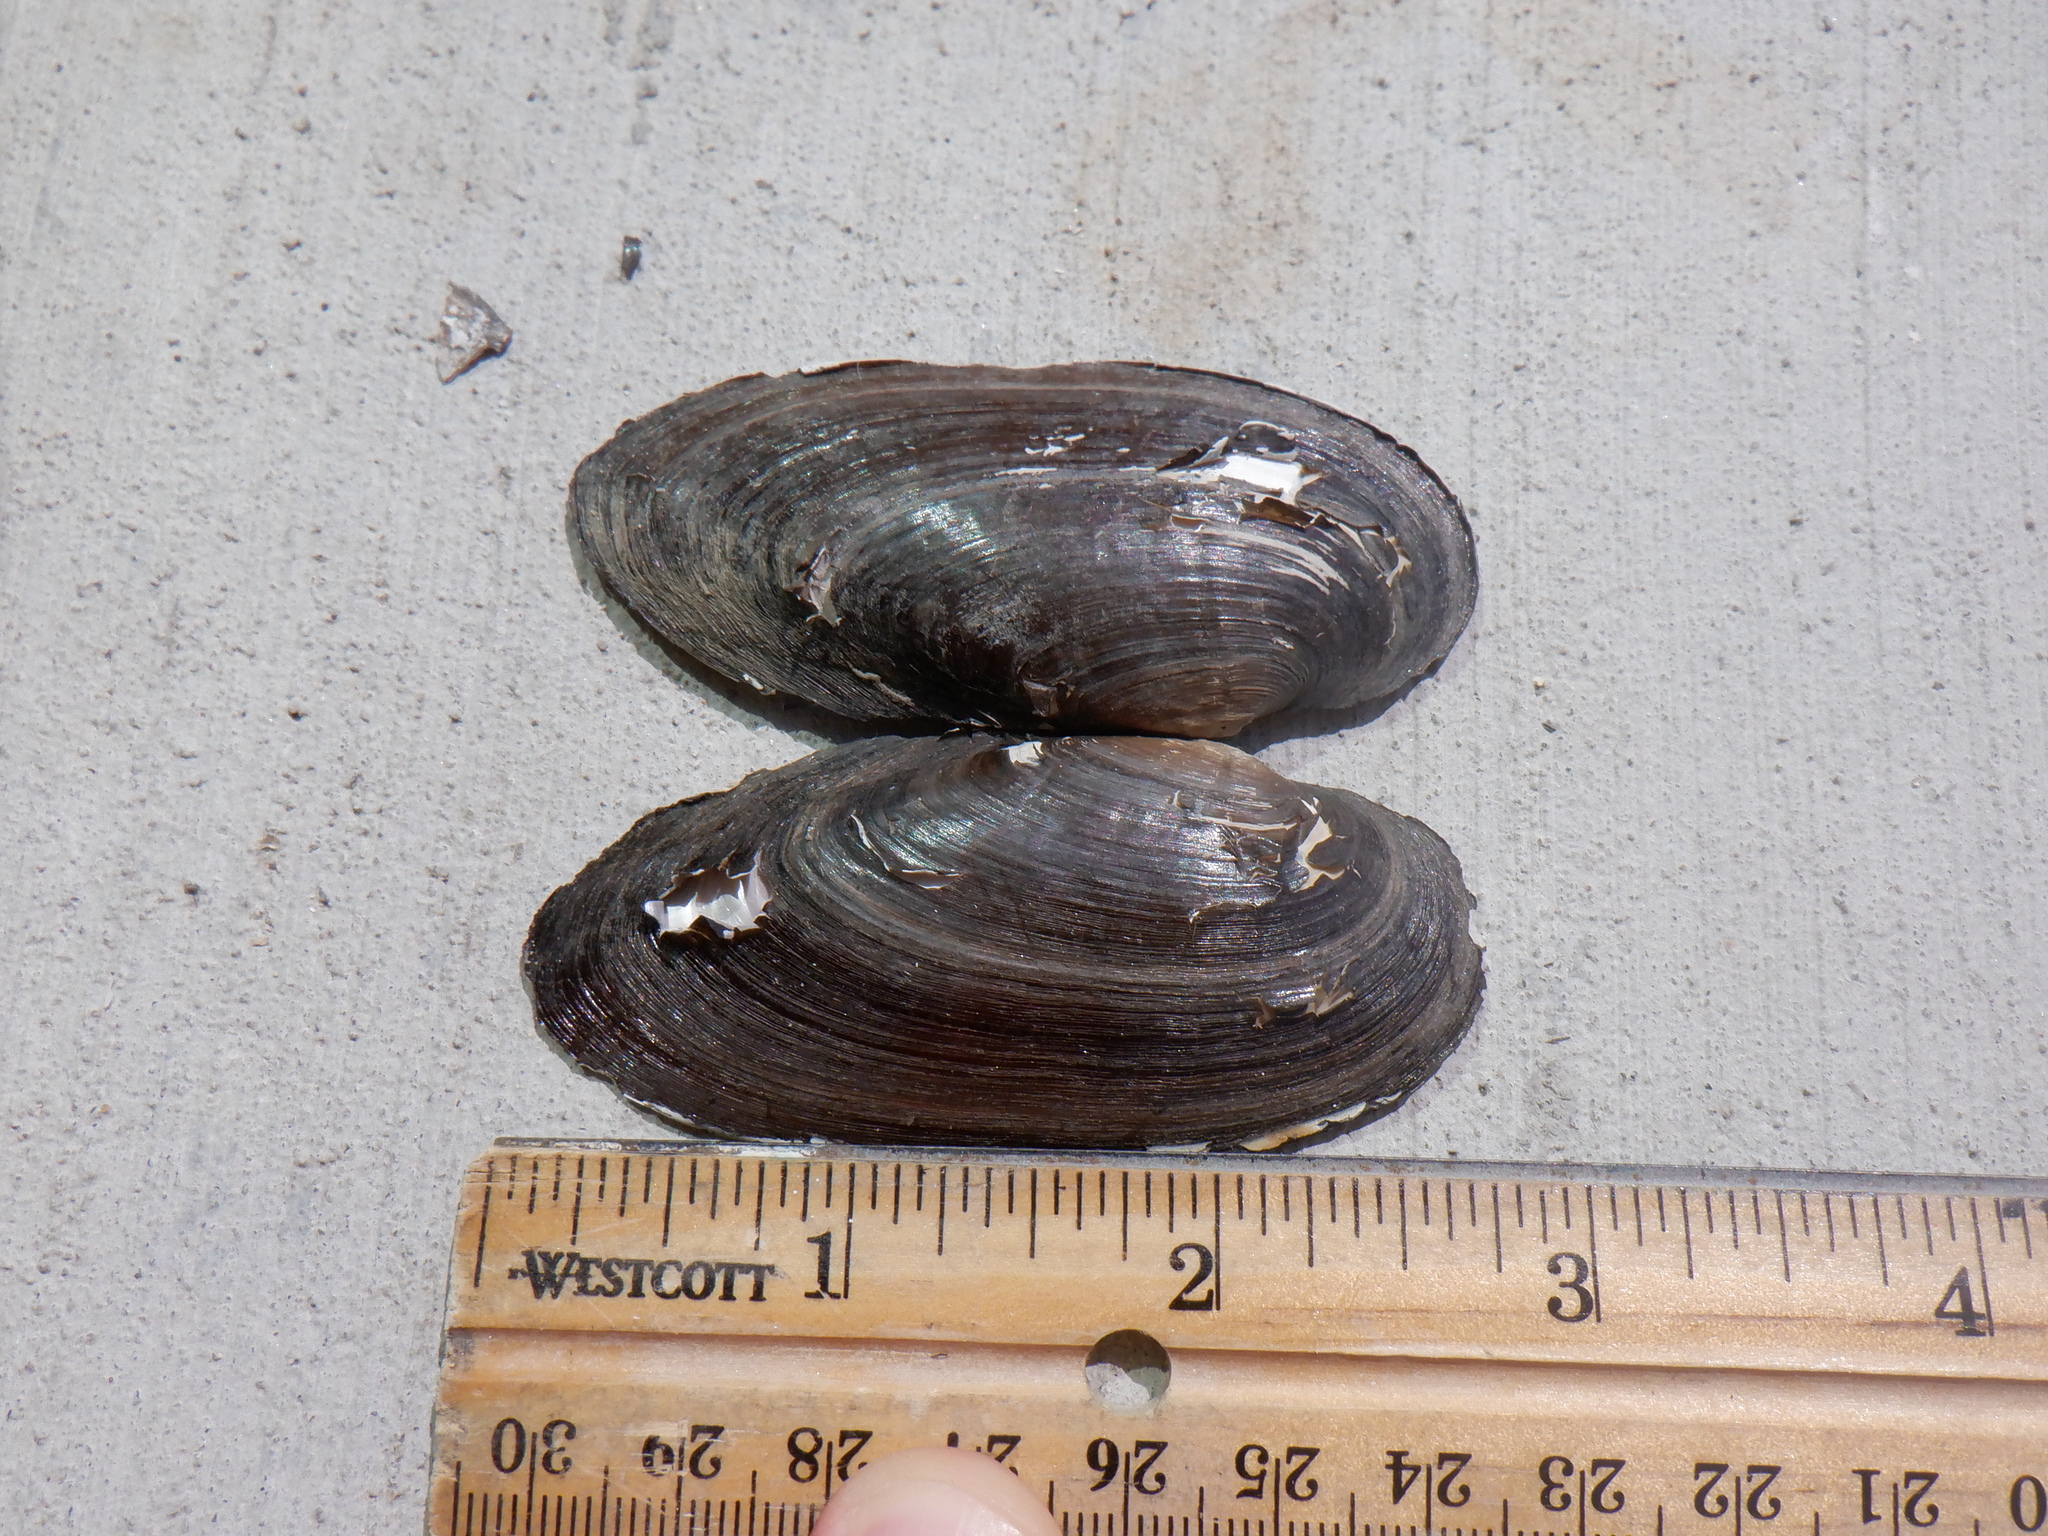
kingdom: Animalia
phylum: Mollusca
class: Bivalvia
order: Unionida
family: Unionidae
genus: Eurynia
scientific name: Eurynia dilatata
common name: Spike
